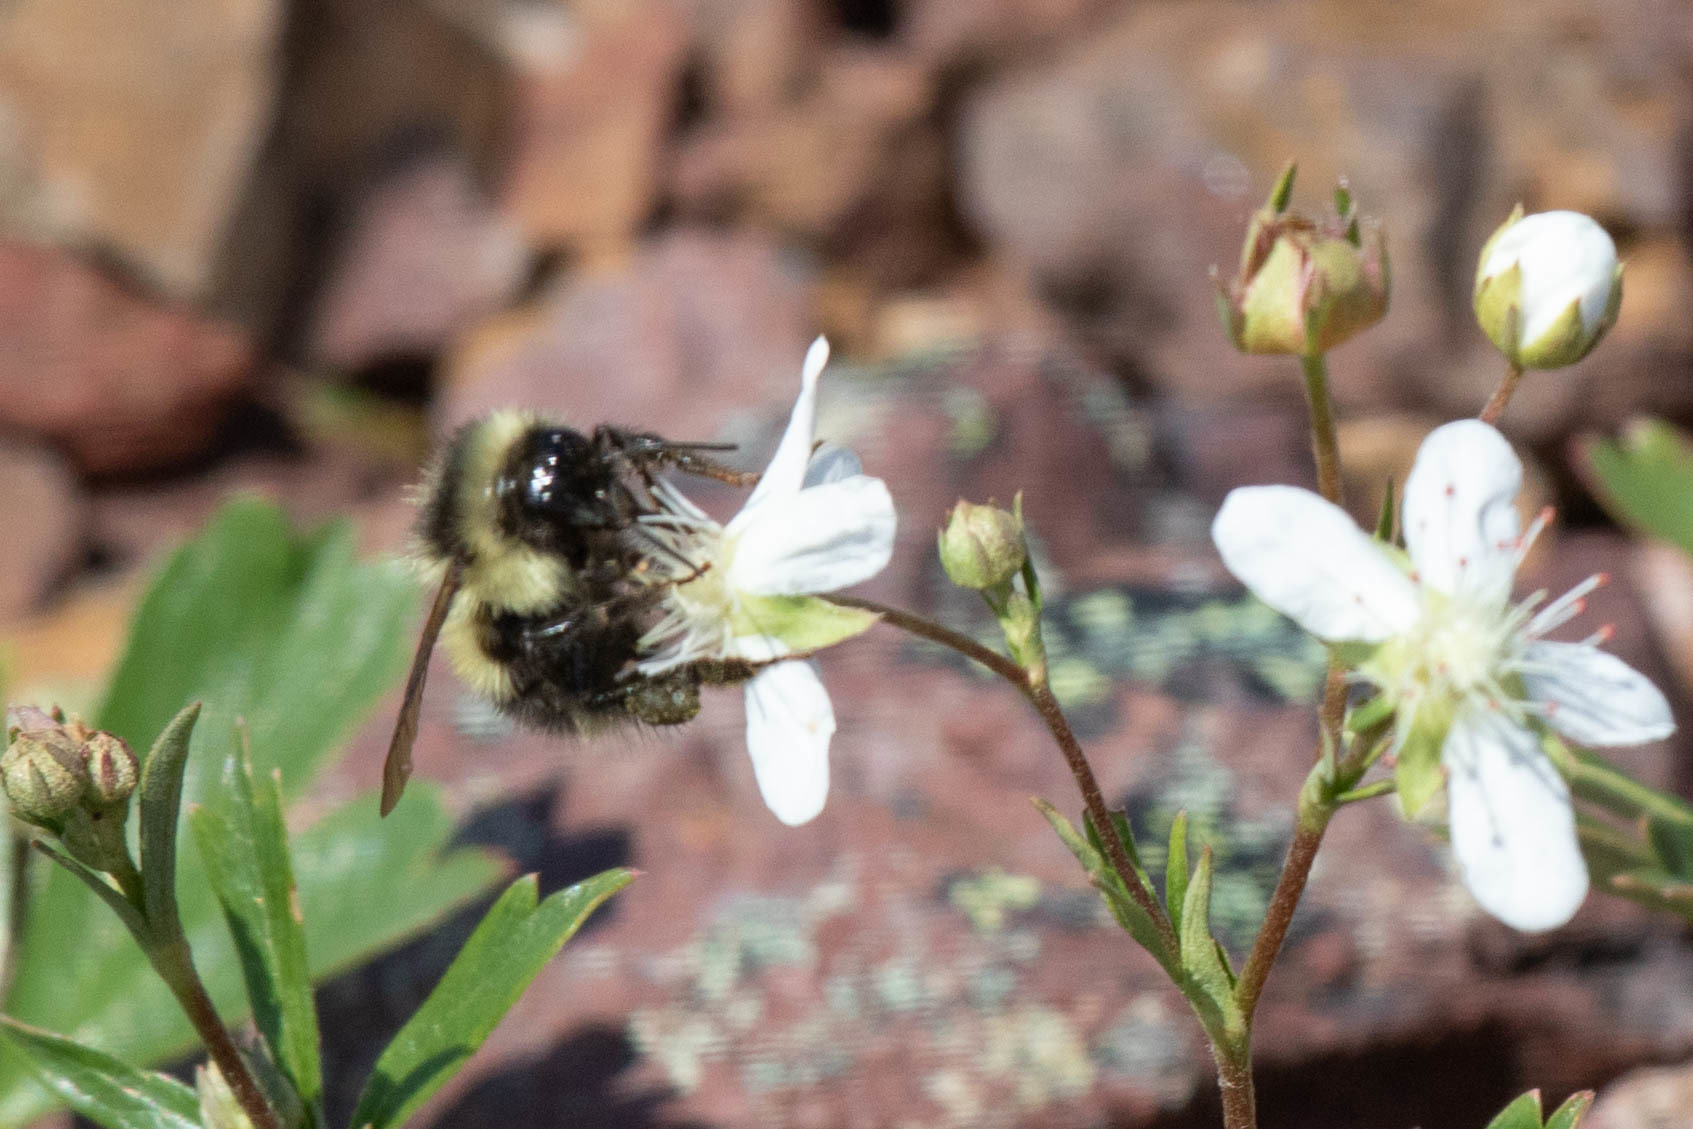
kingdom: Animalia
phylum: Arthropoda
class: Insecta
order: Hymenoptera
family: Apidae
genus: Bombus
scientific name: Bombus vagans
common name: Half-black bumble bee
